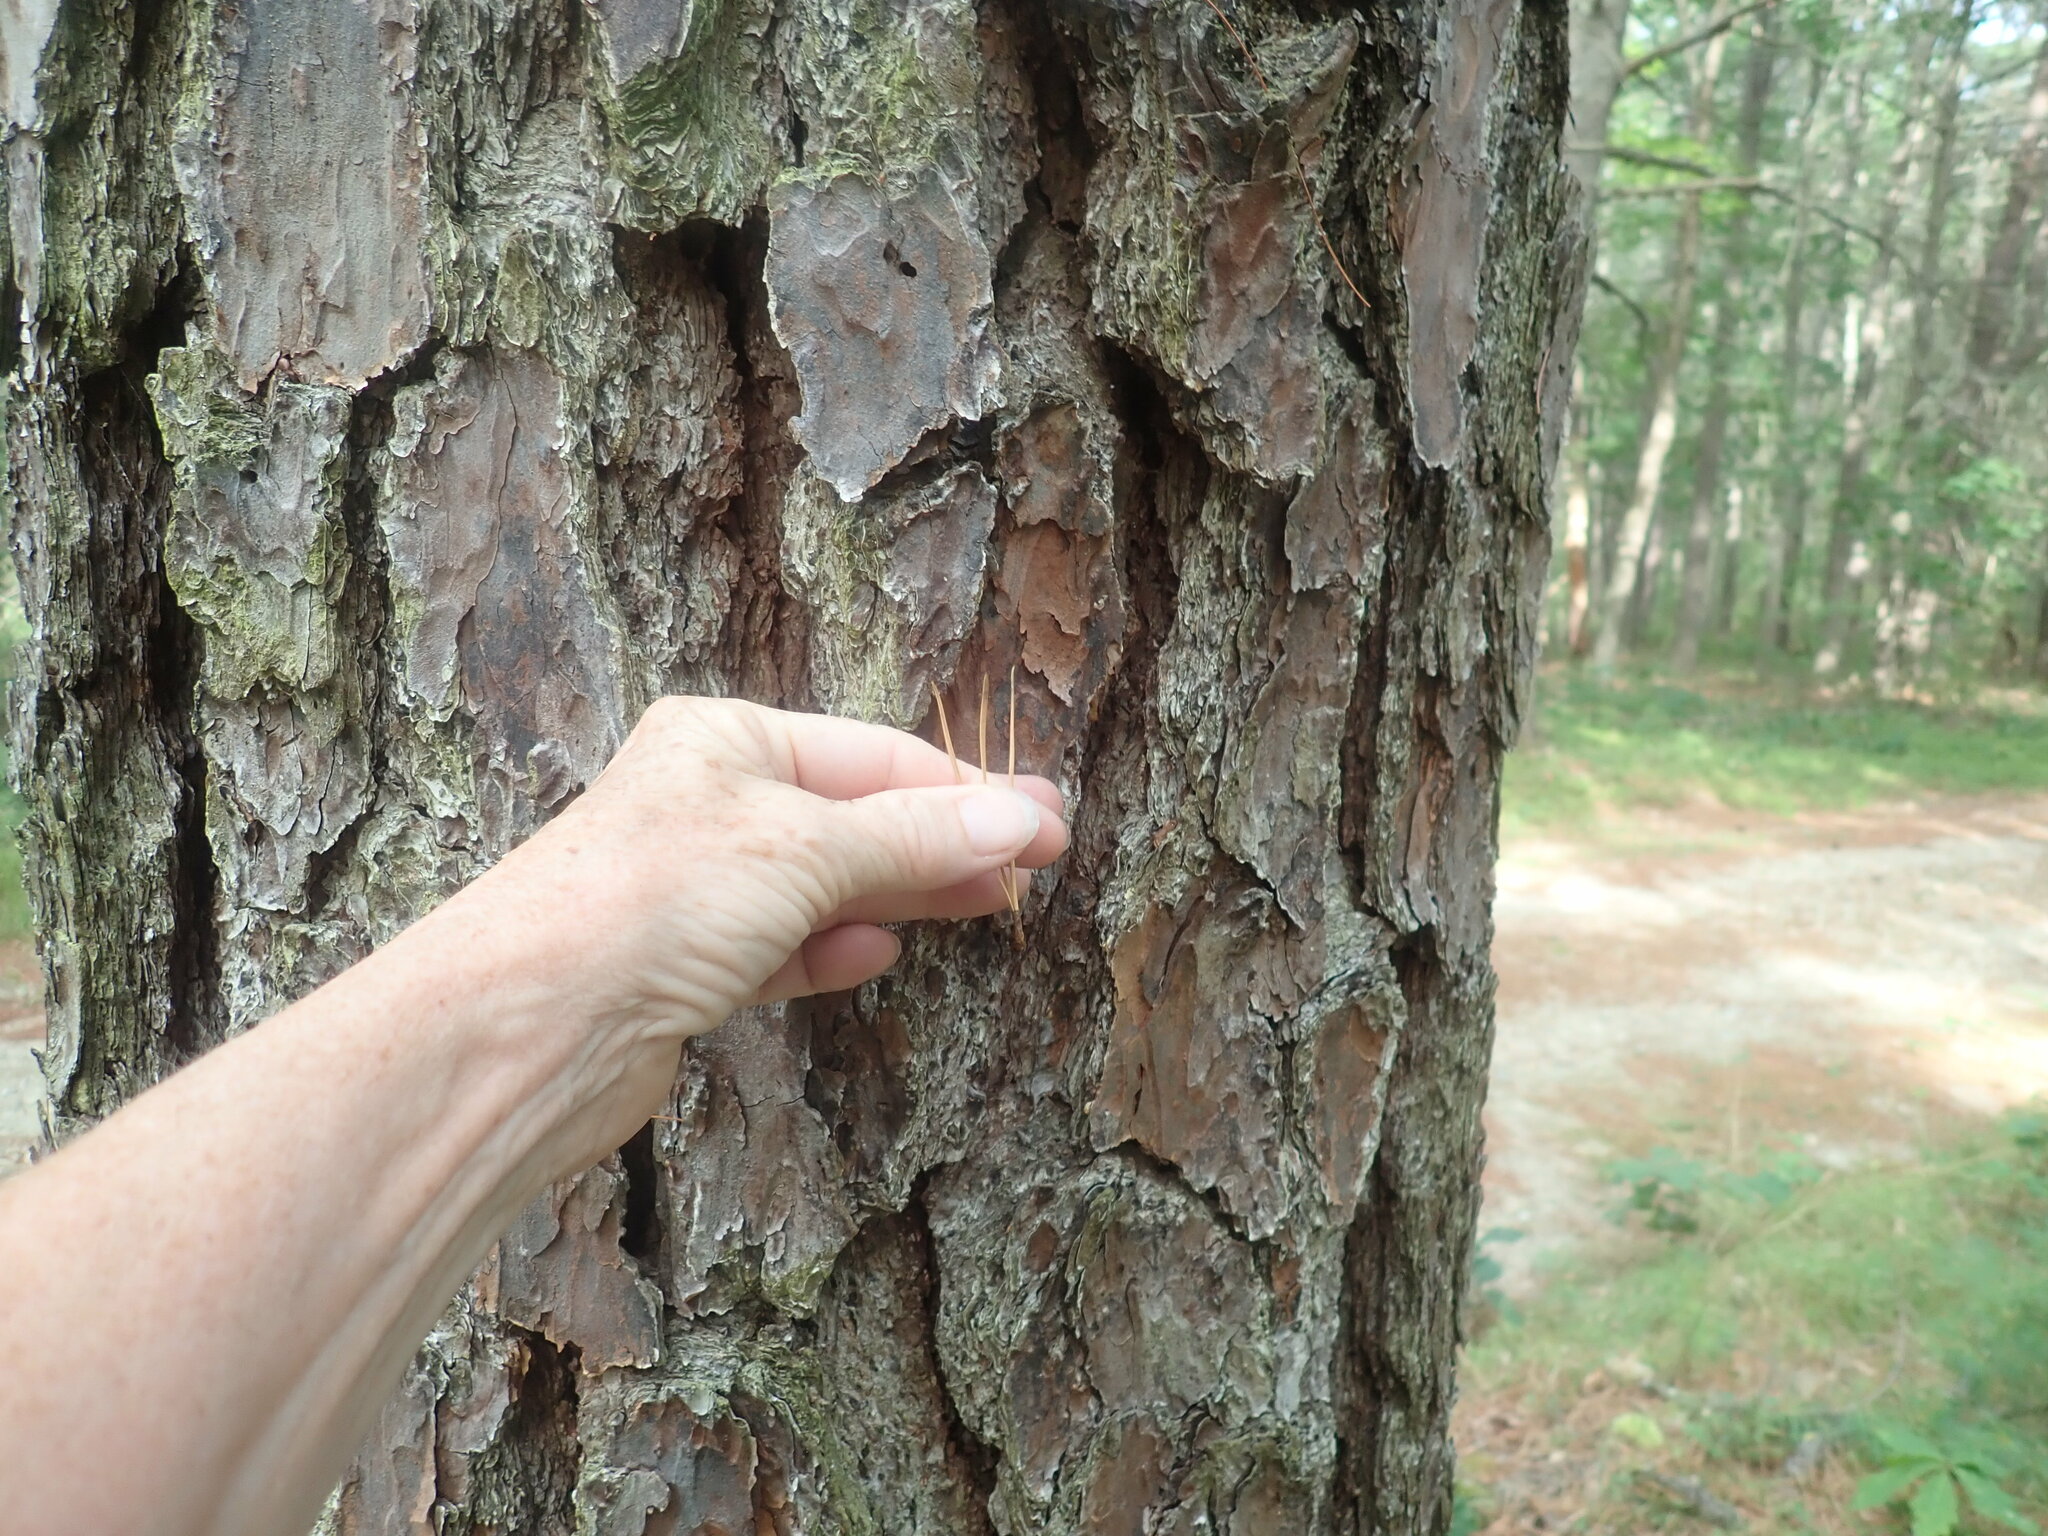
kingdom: Plantae
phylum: Tracheophyta
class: Pinopsida
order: Pinales
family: Pinaceae
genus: Pinus
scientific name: Pinus rigida
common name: Pitch pine
